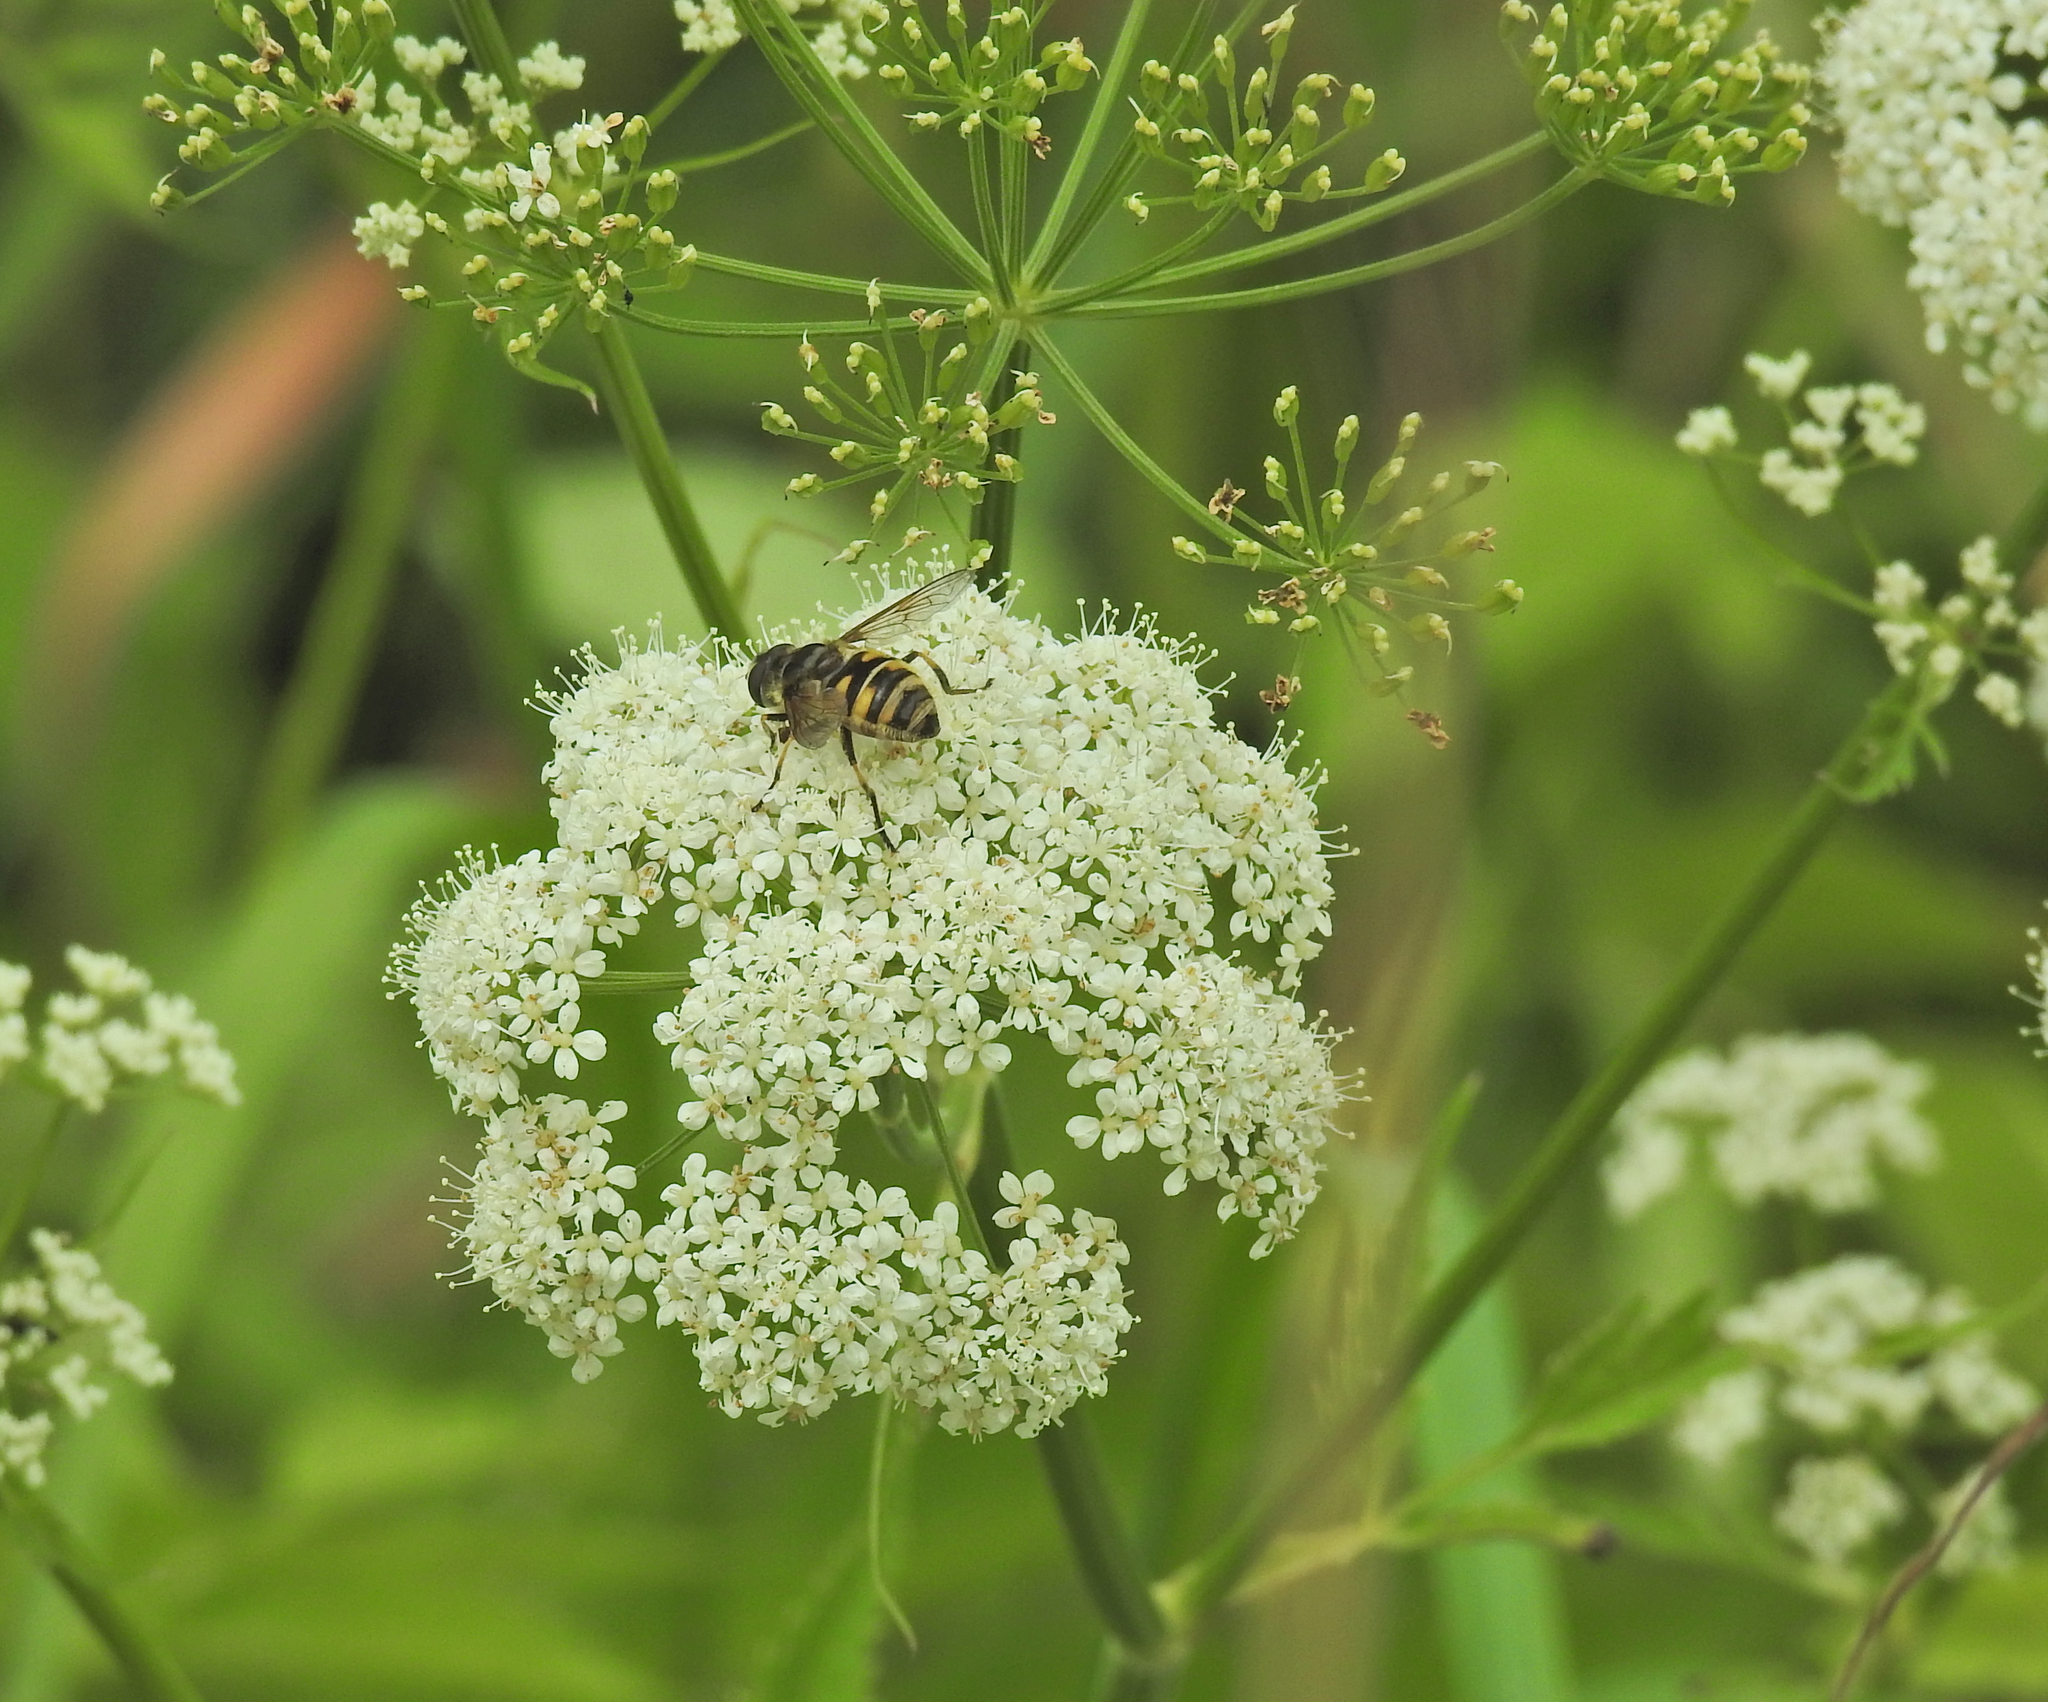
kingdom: Animalia
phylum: Arthropoda
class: Insecta
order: Diptera
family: Syrphidae
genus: Myathropa
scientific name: Myathropa florea
